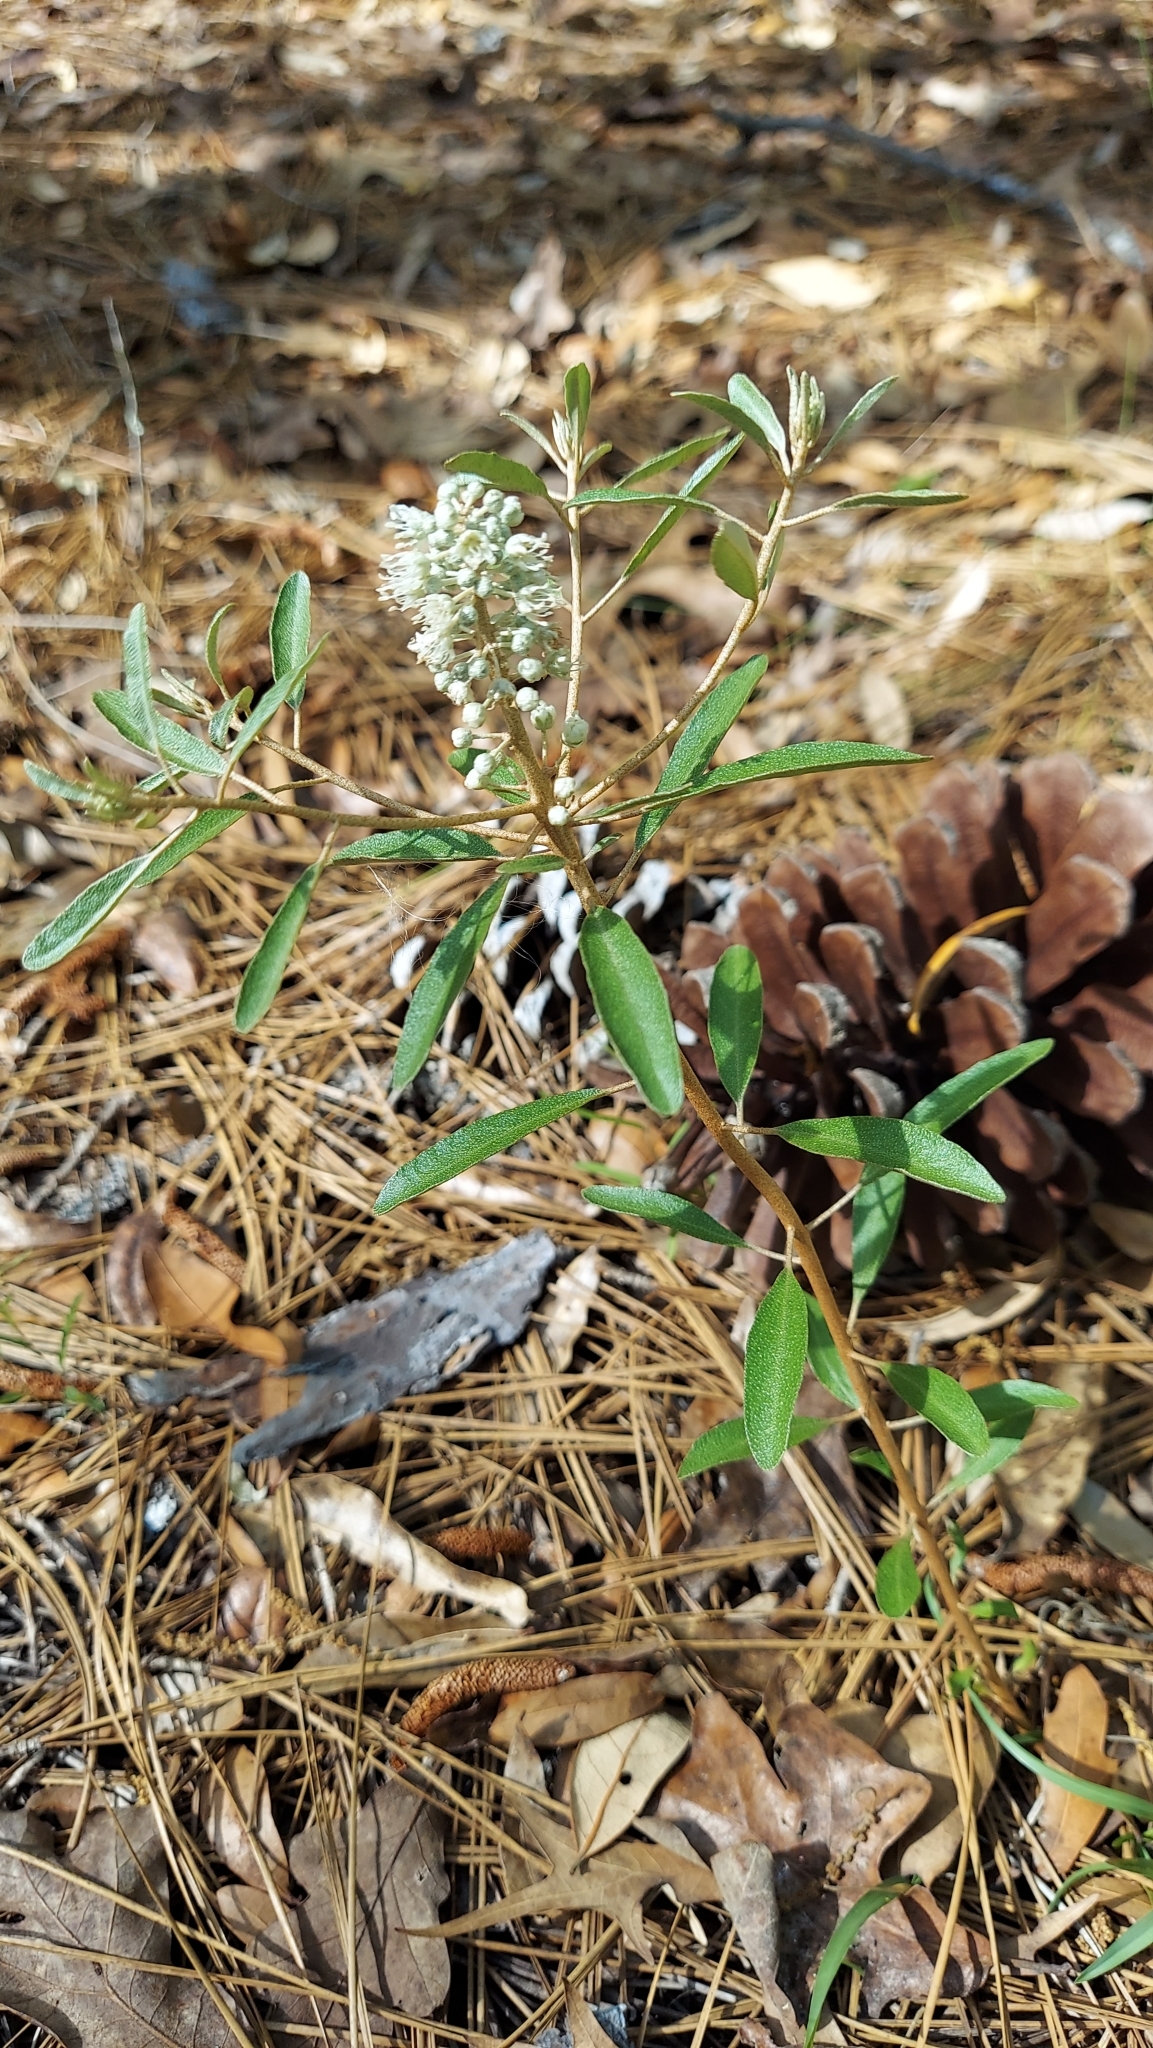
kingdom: Plantae
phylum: Tracheophyta
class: Magnoliopsida
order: Malpighiales
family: Euphorbiaceae
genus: Croton
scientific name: Croton argyranthemus
